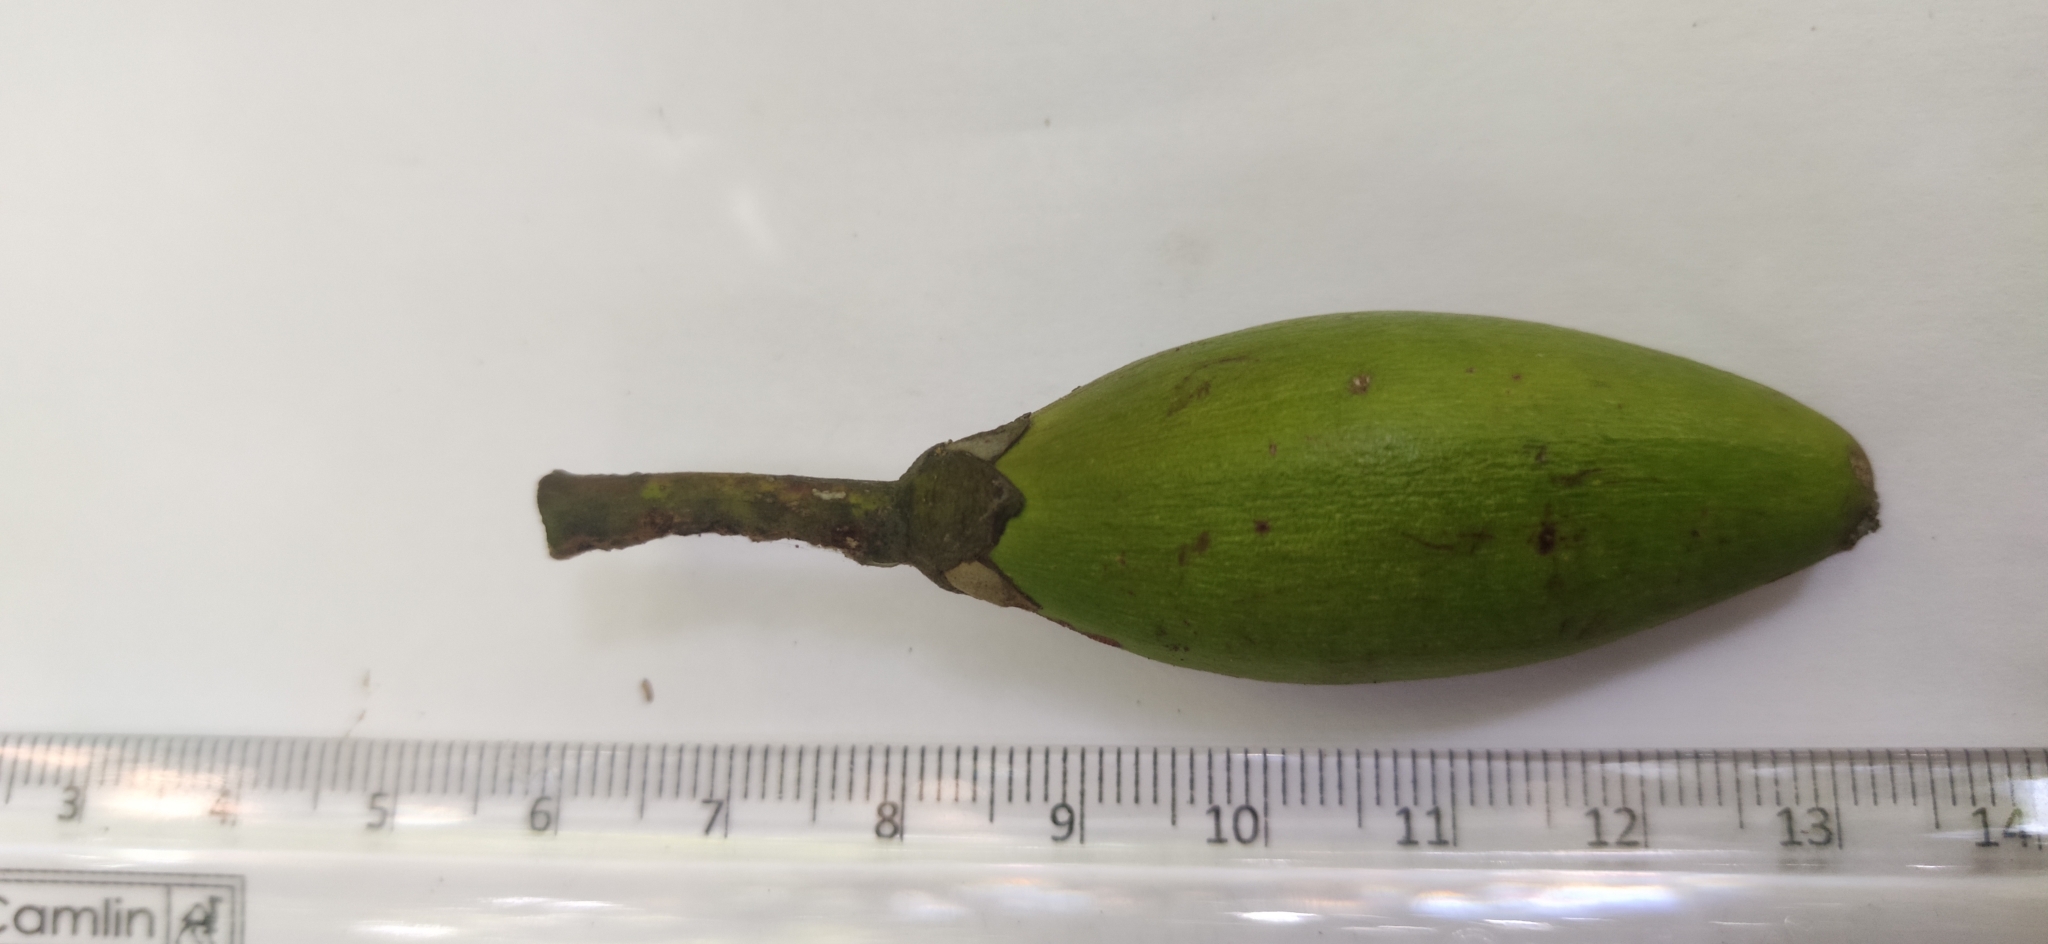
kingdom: Plantae
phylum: Tracheophyta
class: Magnoliopsida
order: Ericales
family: Sapotaceae
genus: Palaquium
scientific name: Palaquium ellipticum
